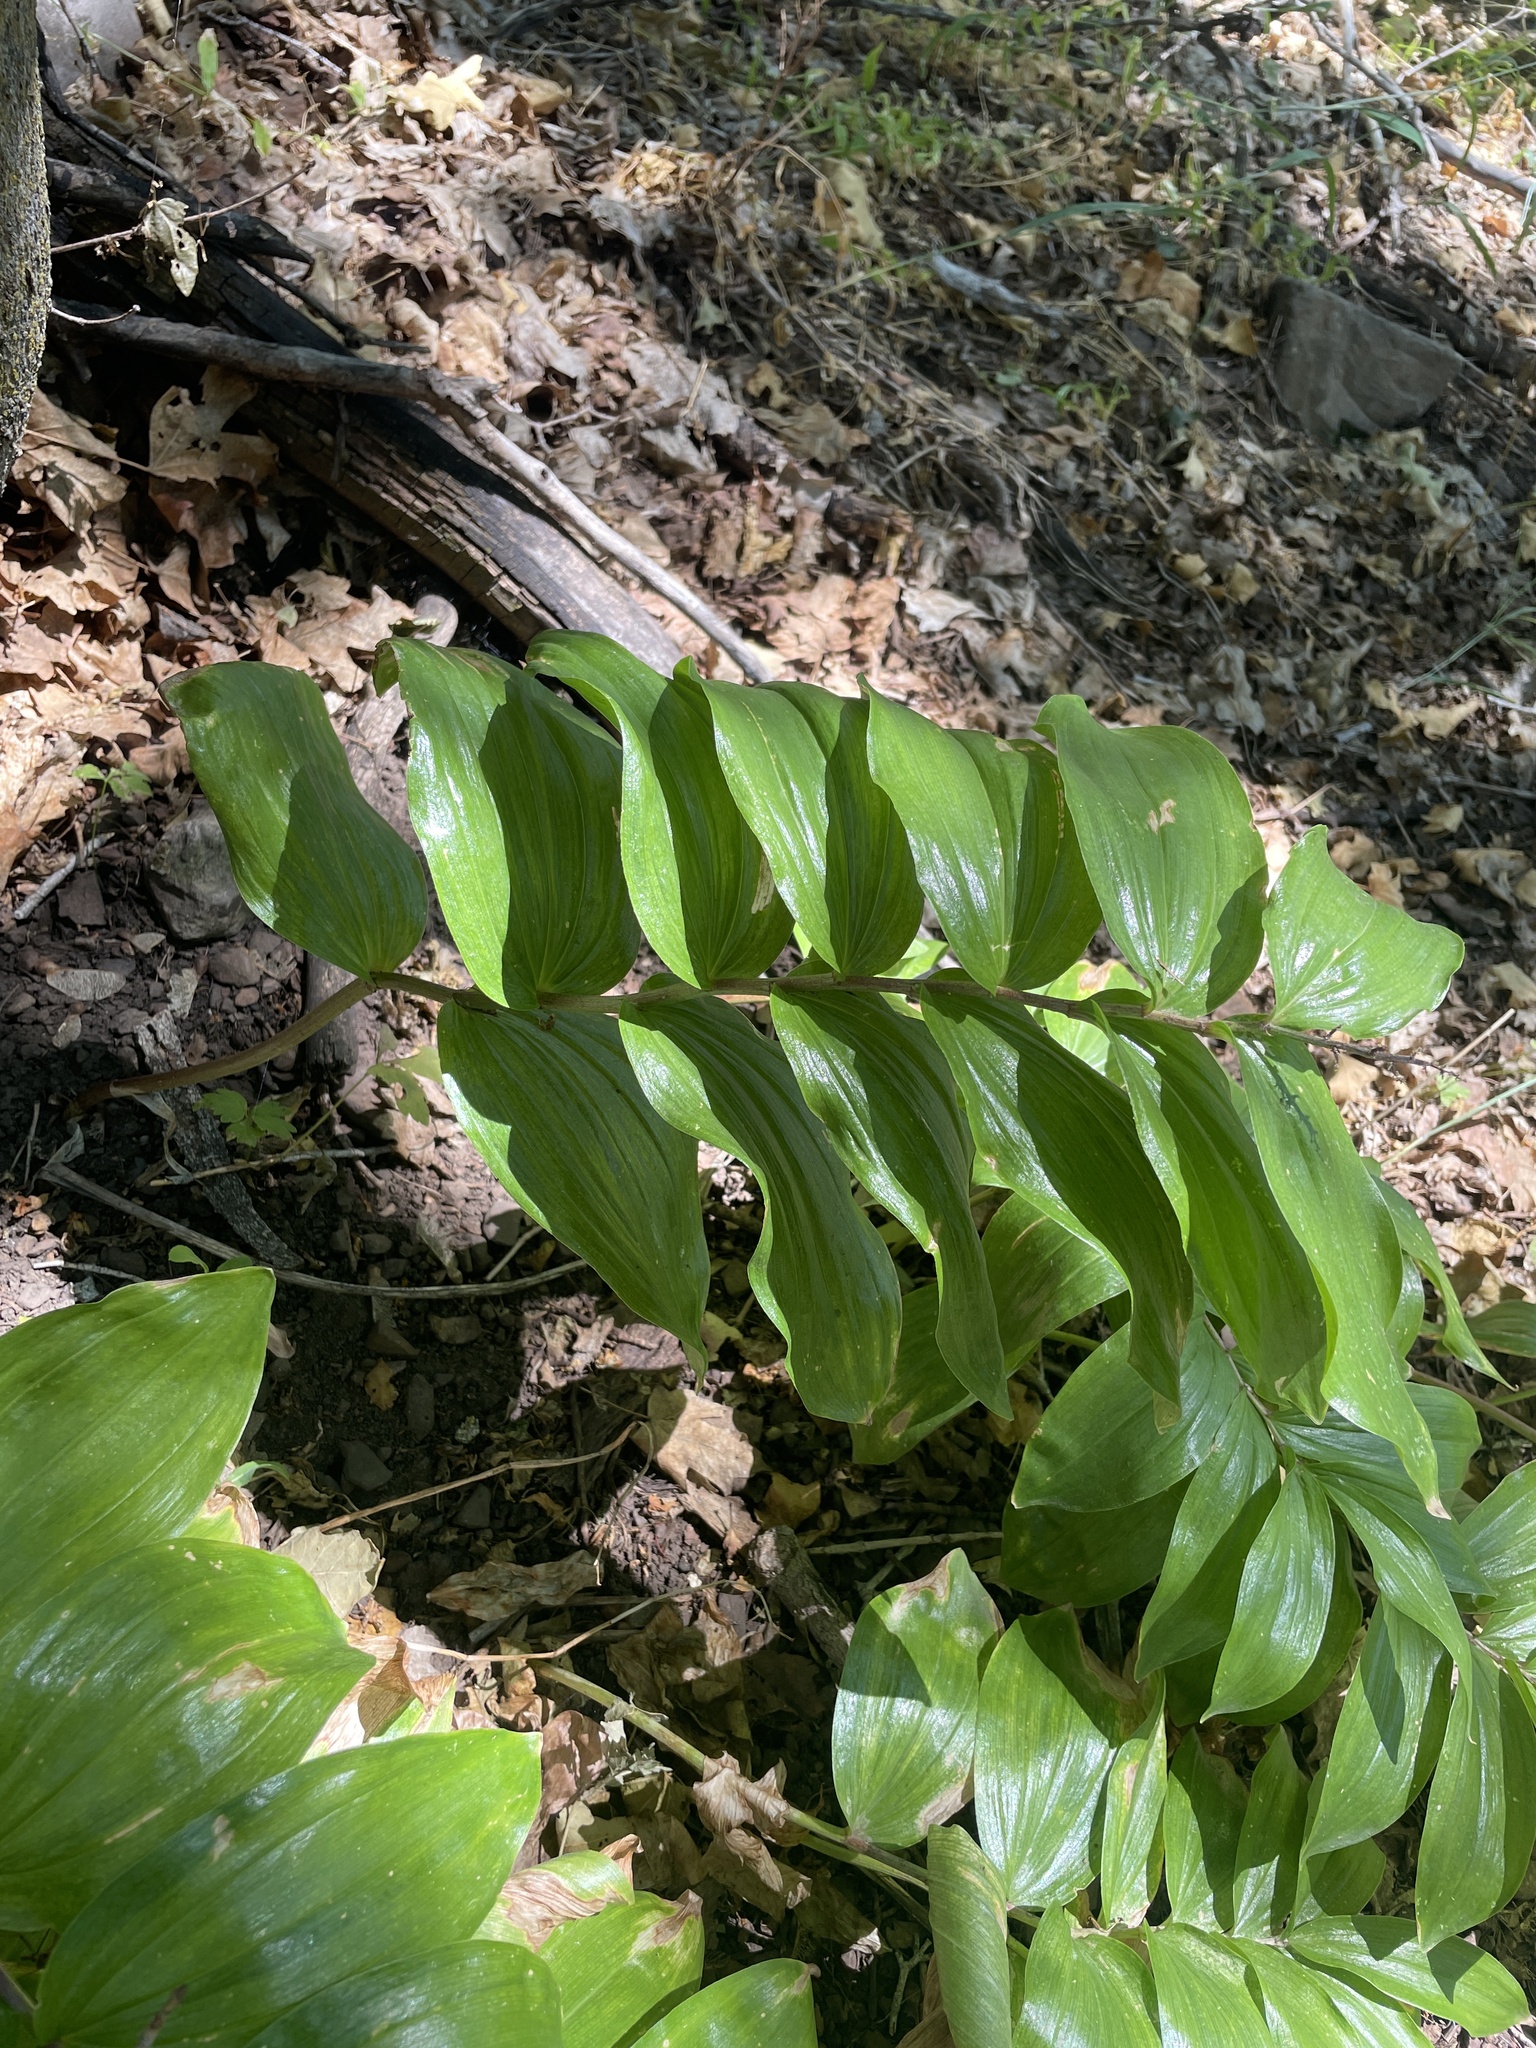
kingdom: Plantae
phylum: Tracheophyta
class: Liliopsida
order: Asparagales
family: Asparagaceae
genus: Maianthemum
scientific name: Maianthemum racemosum
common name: False spikenard
